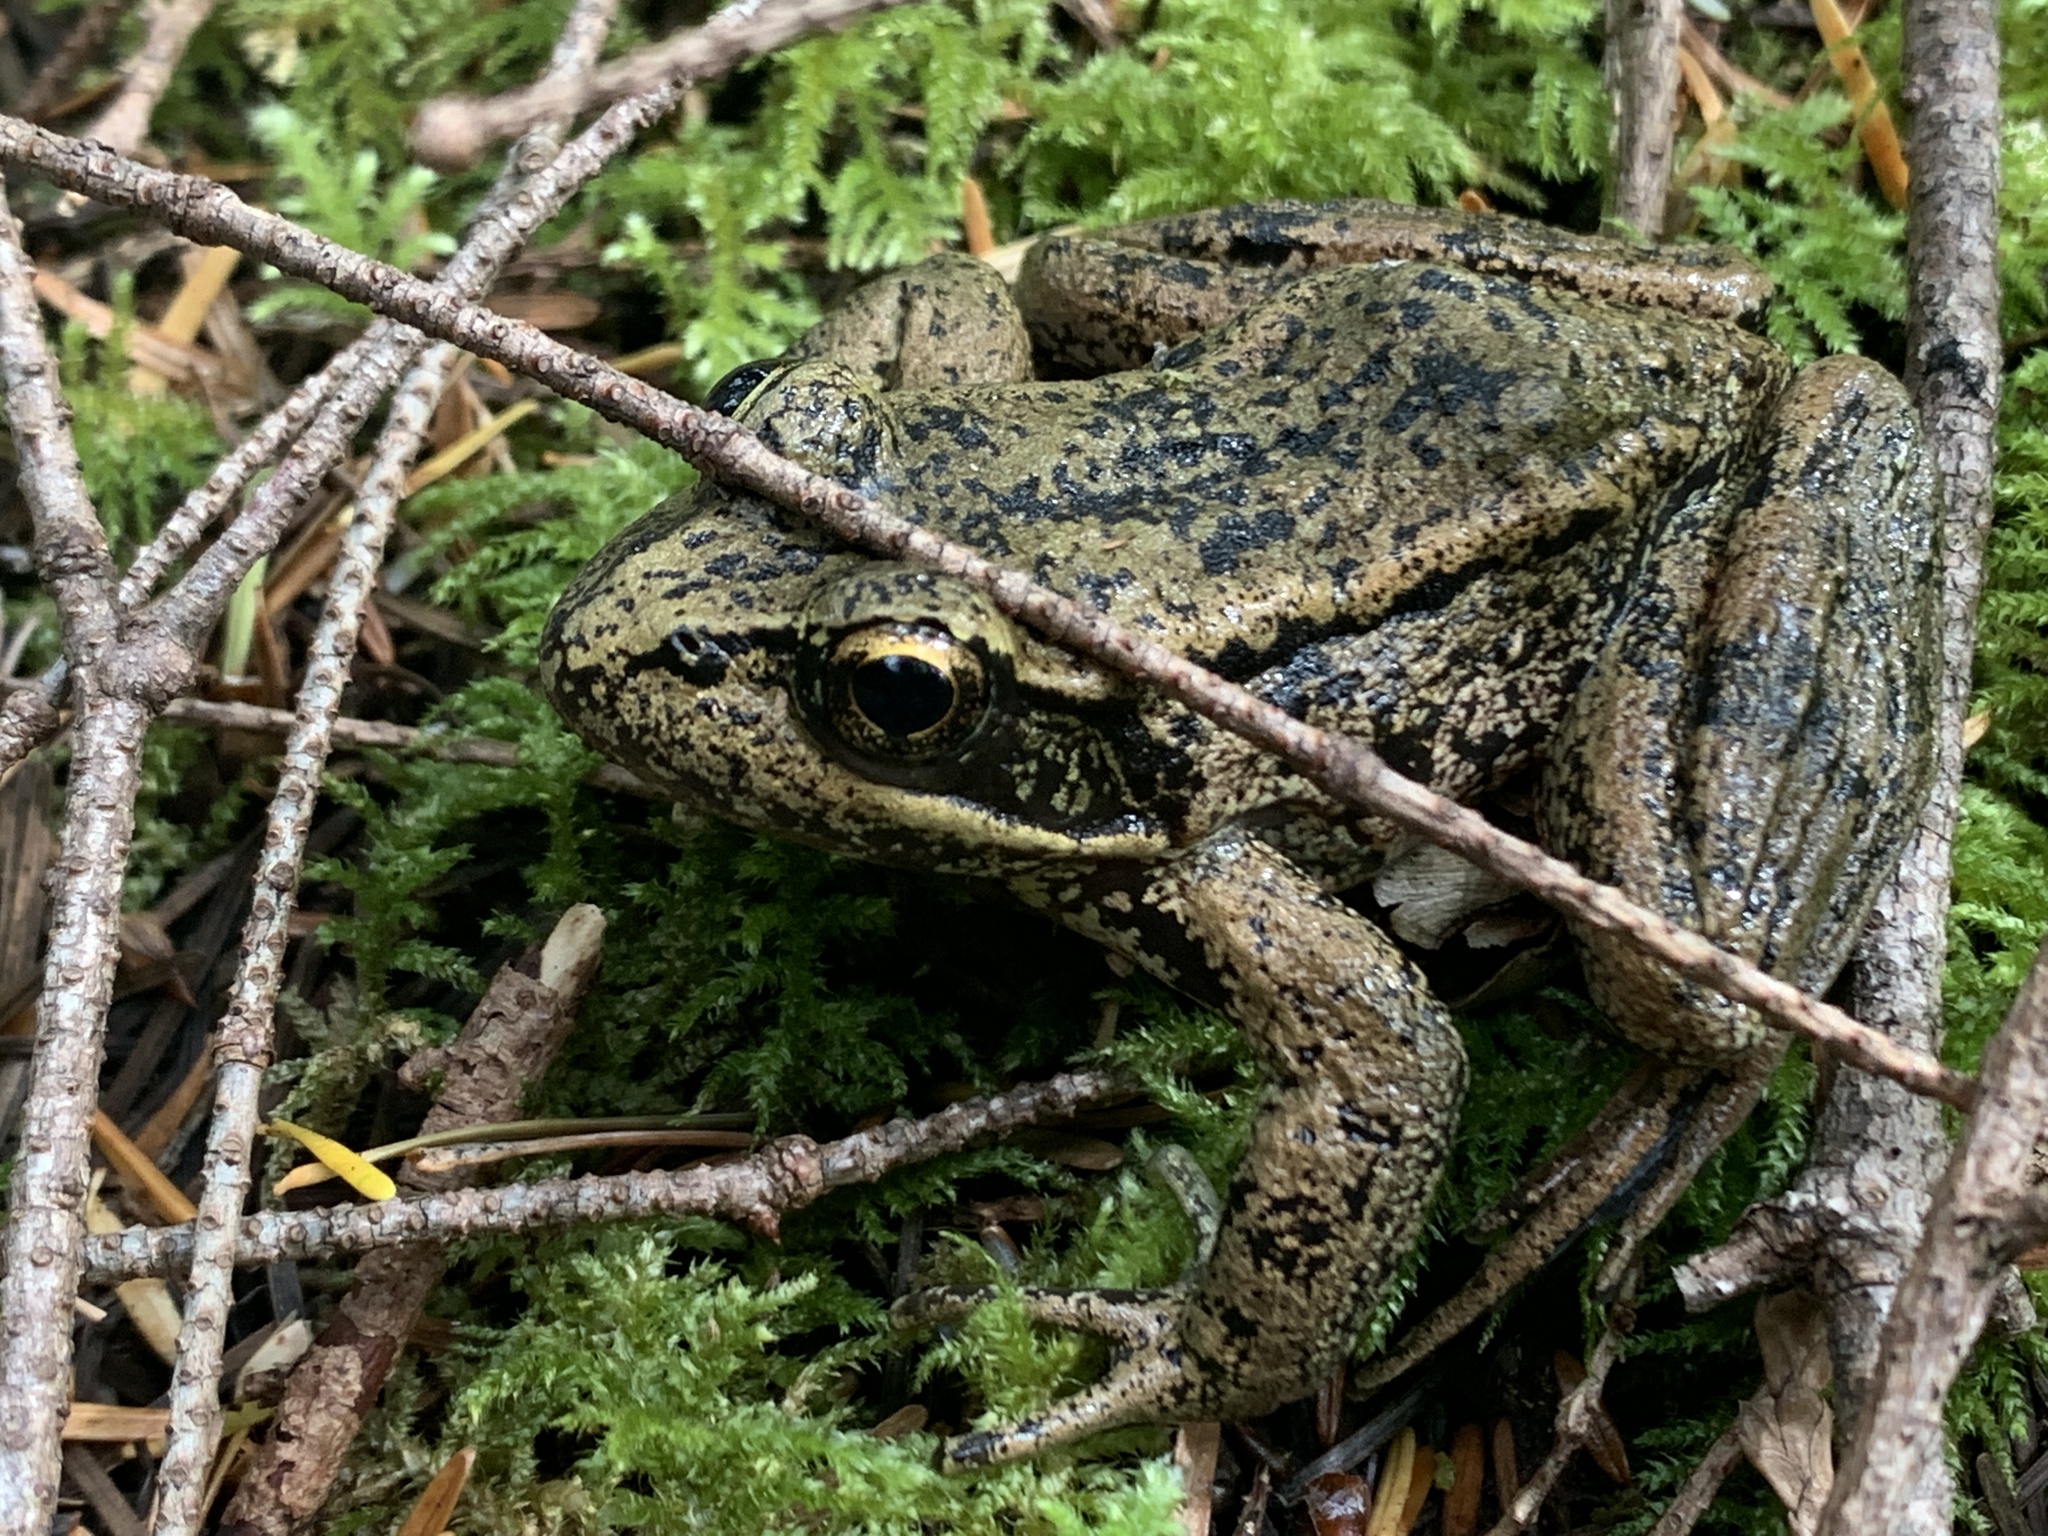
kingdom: Animalia
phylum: Chordata
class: Amphibia
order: Anura
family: Ranidae
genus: Rana
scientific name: Rana aurora
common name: Red-legged frog
